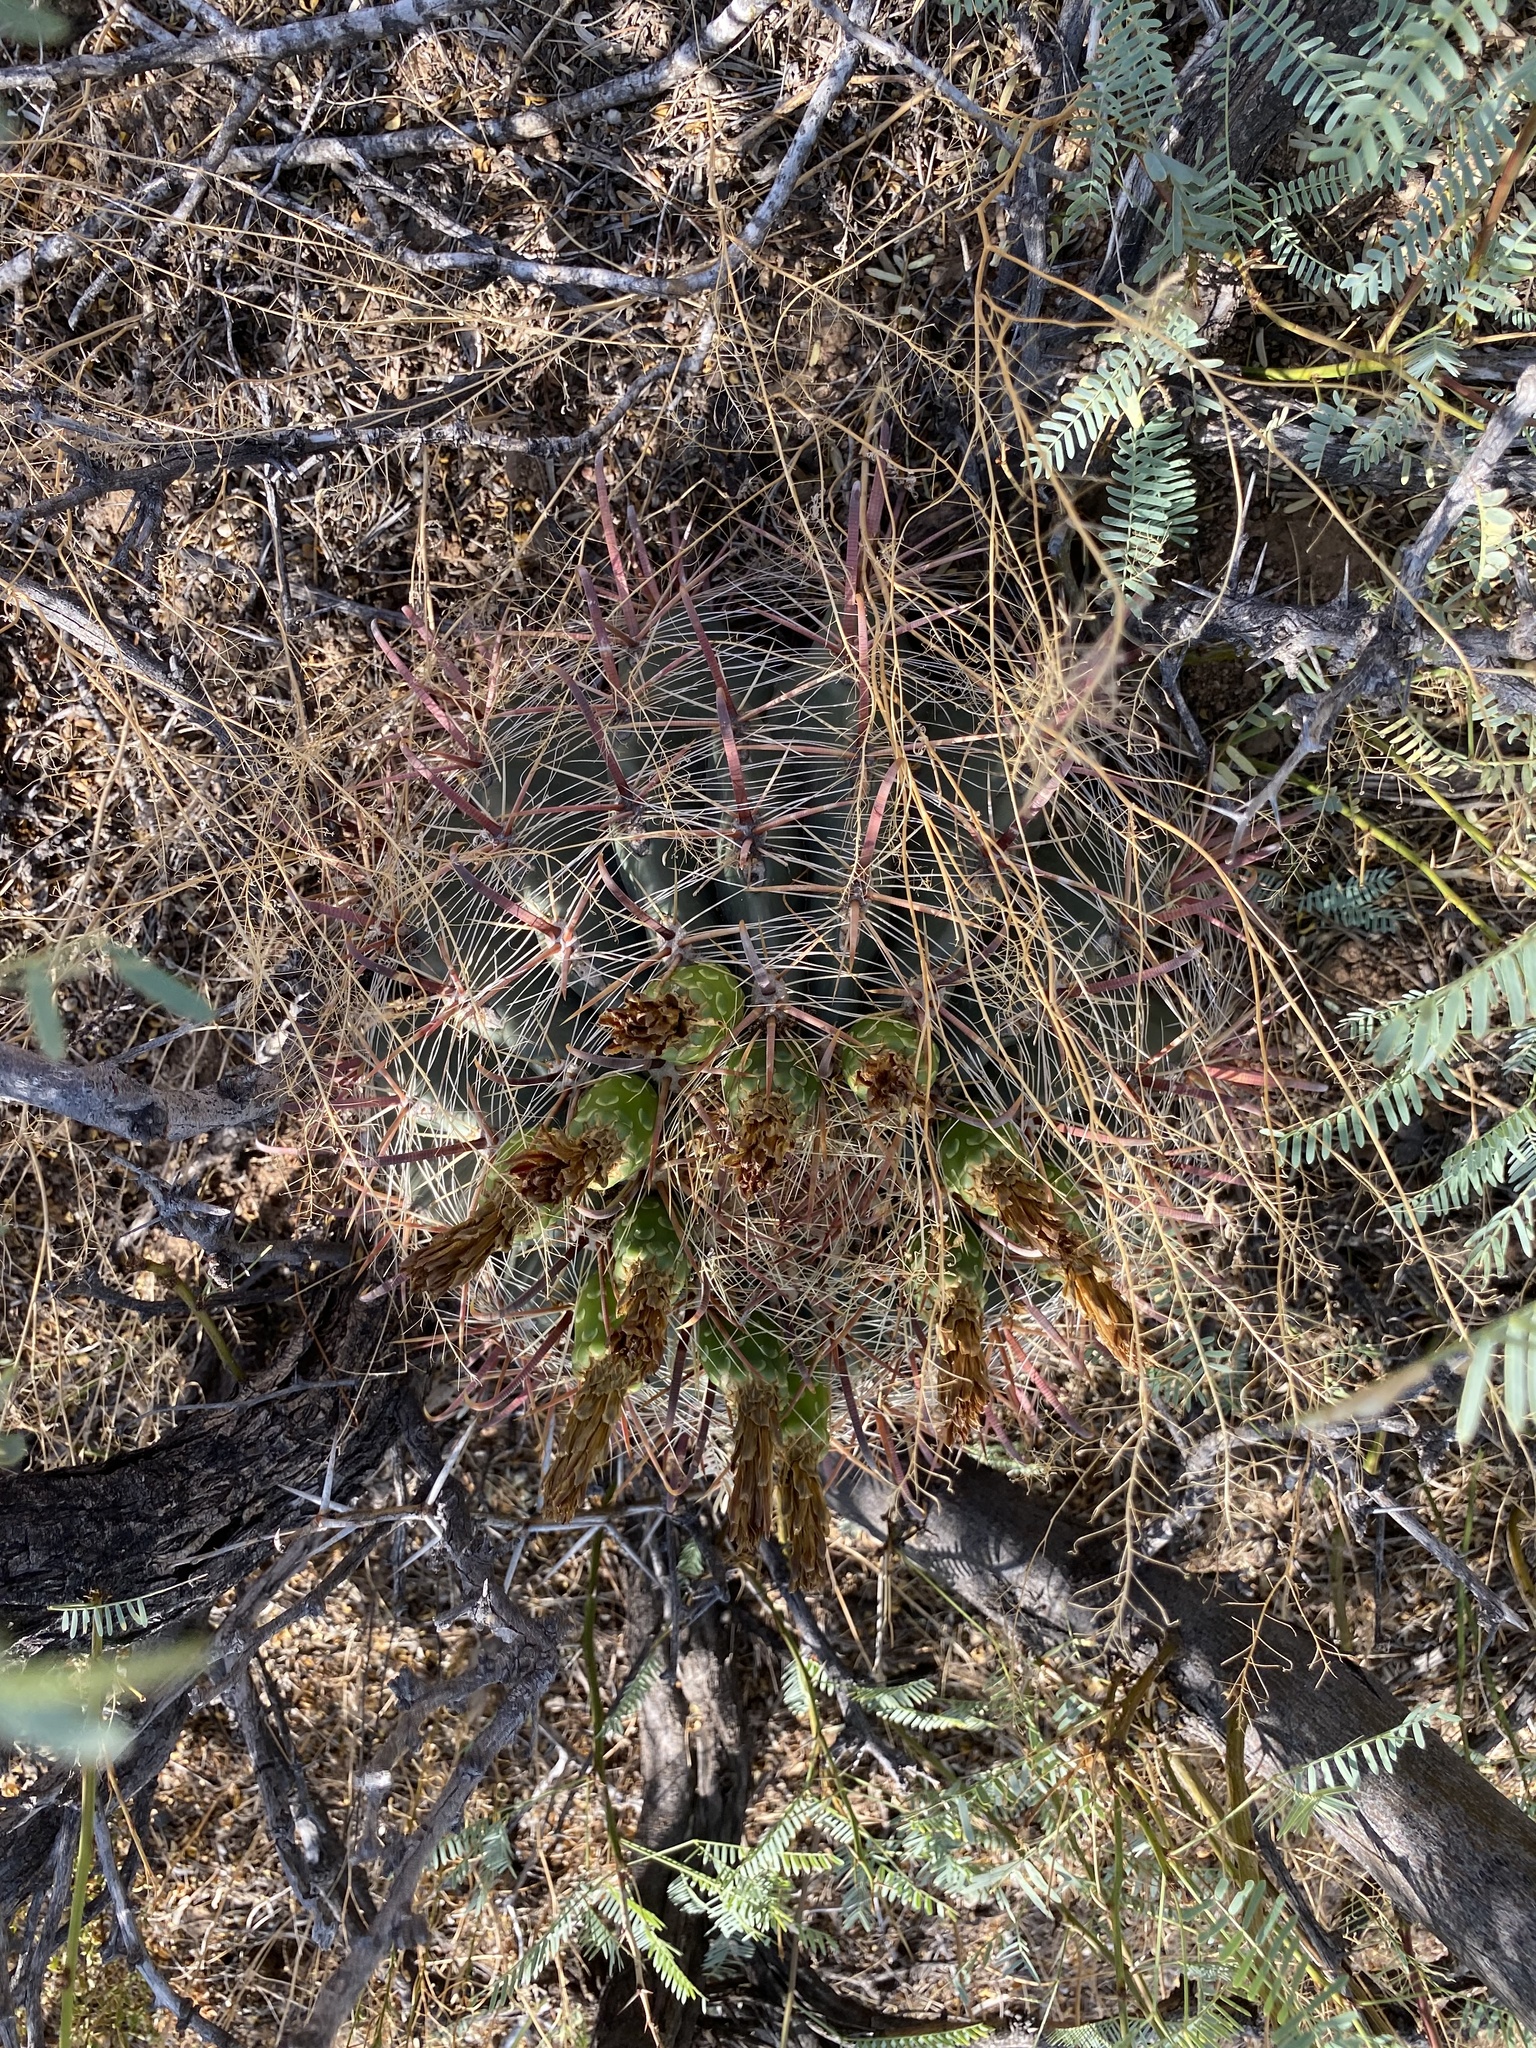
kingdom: Plantae
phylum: Tracheophyta
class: Magnoliopsida
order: Caryophyllales
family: Cactaceae
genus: Ferocactus
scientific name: Ferocactus wislizeni
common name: Candy barrel cactus
